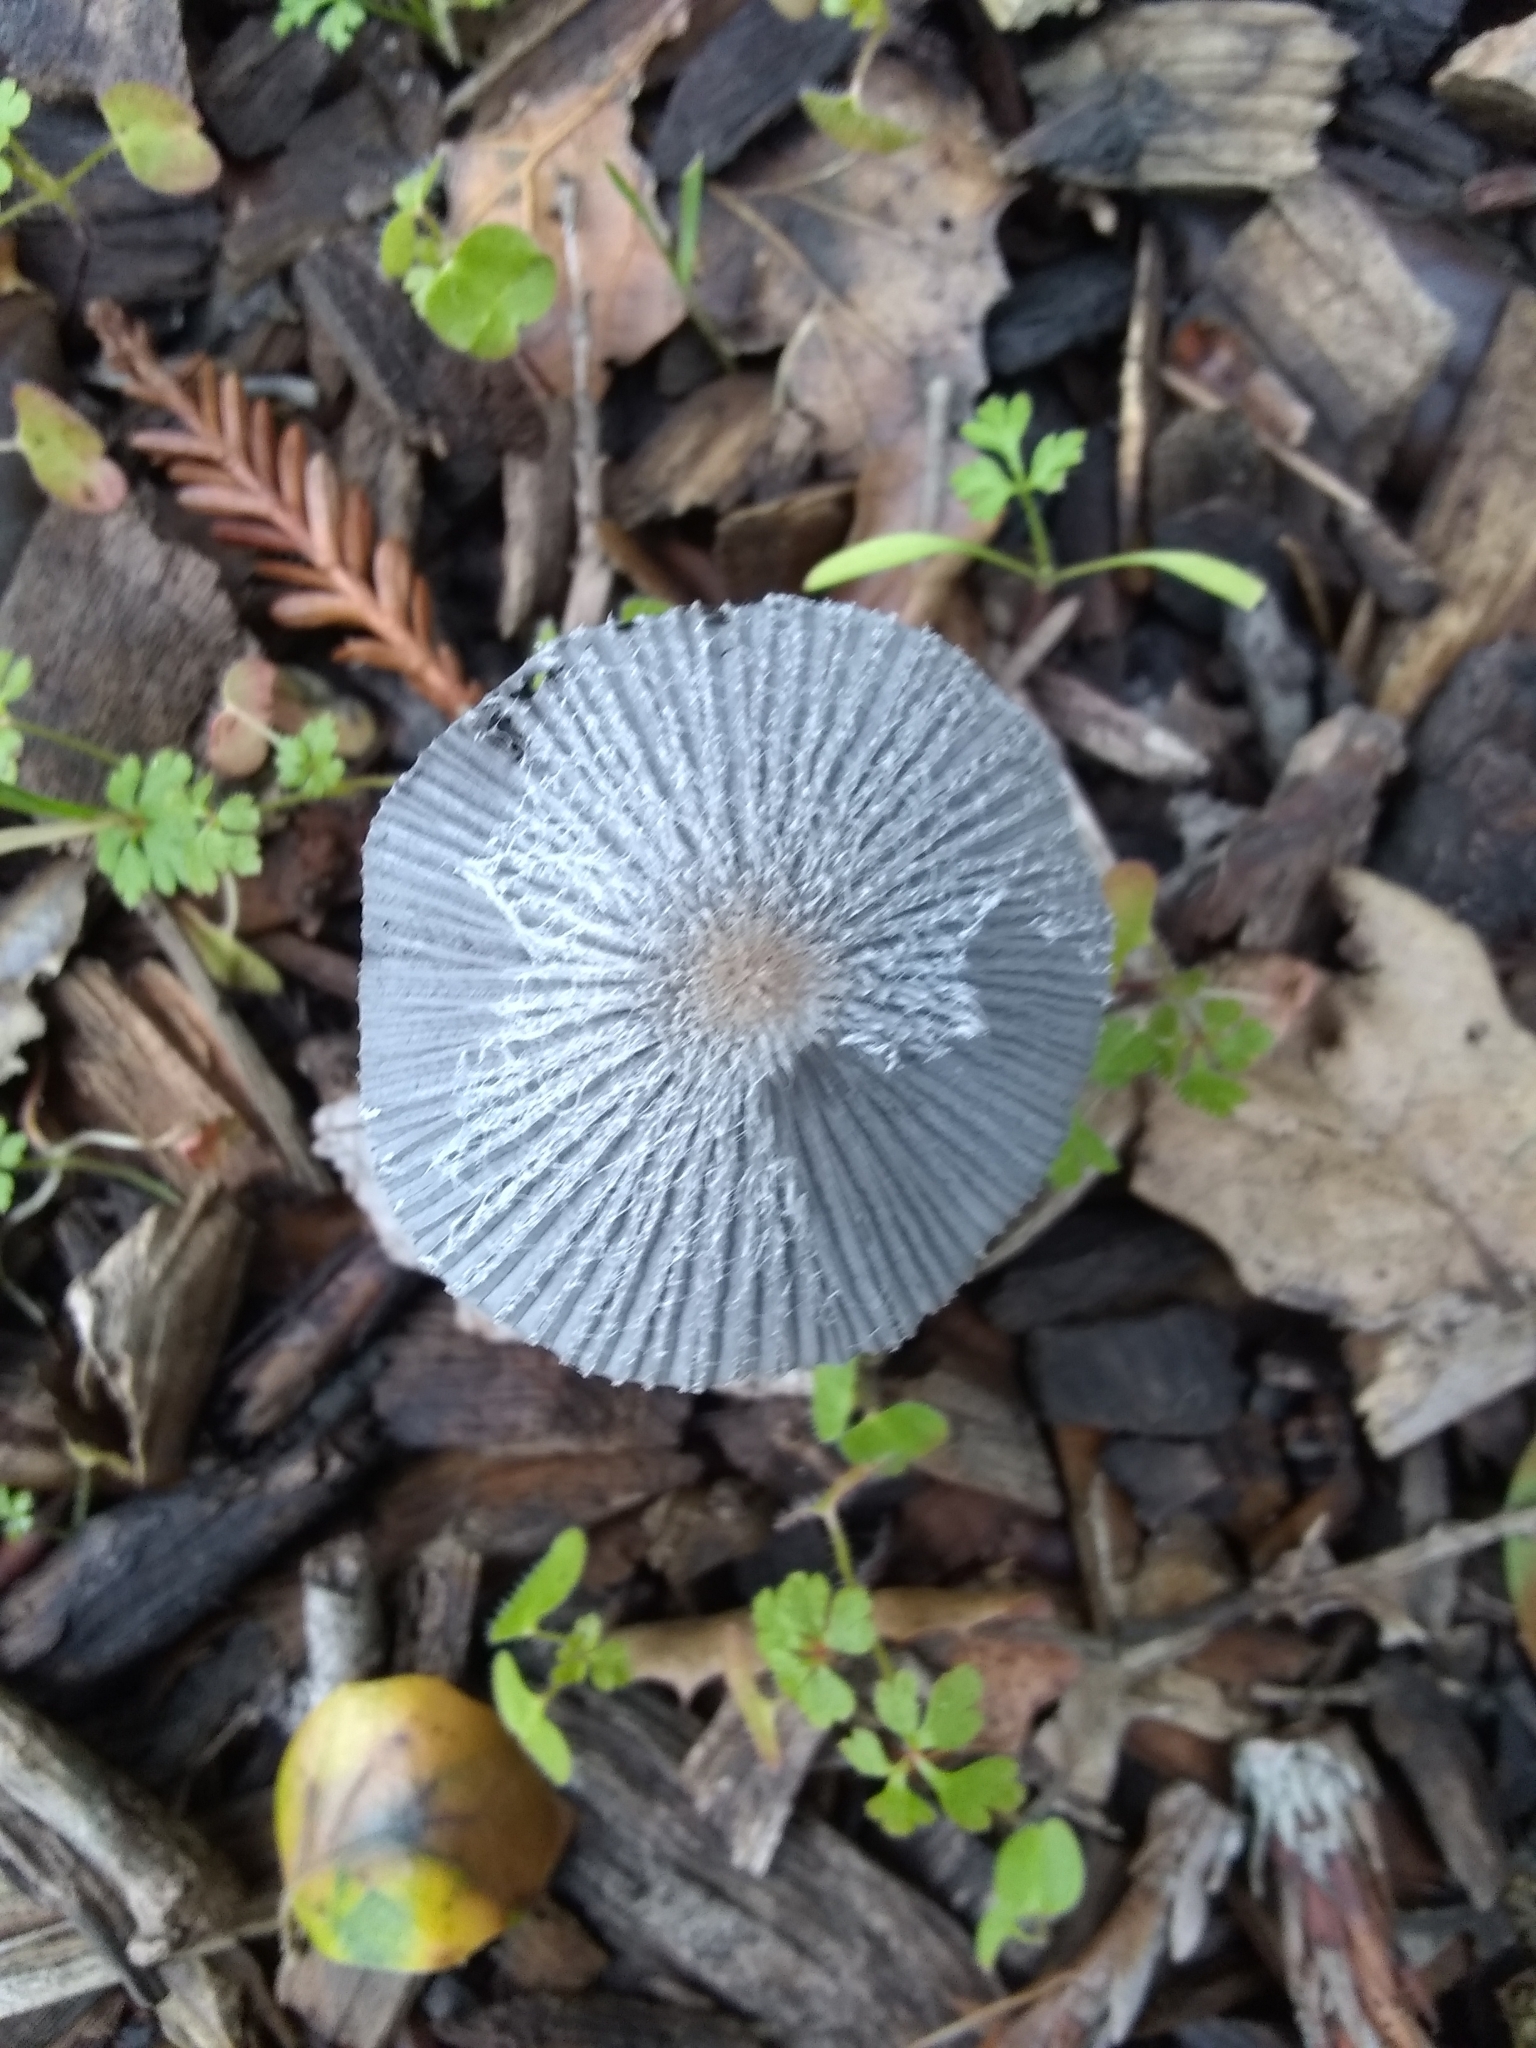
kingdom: Fungi
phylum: Basidiomycota
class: Agaricomycetes
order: Agaricales
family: Psathyrellaceae
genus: Coprinopsis
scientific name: Coprinopsis lagopus
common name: Hare'sfoot inkcap
